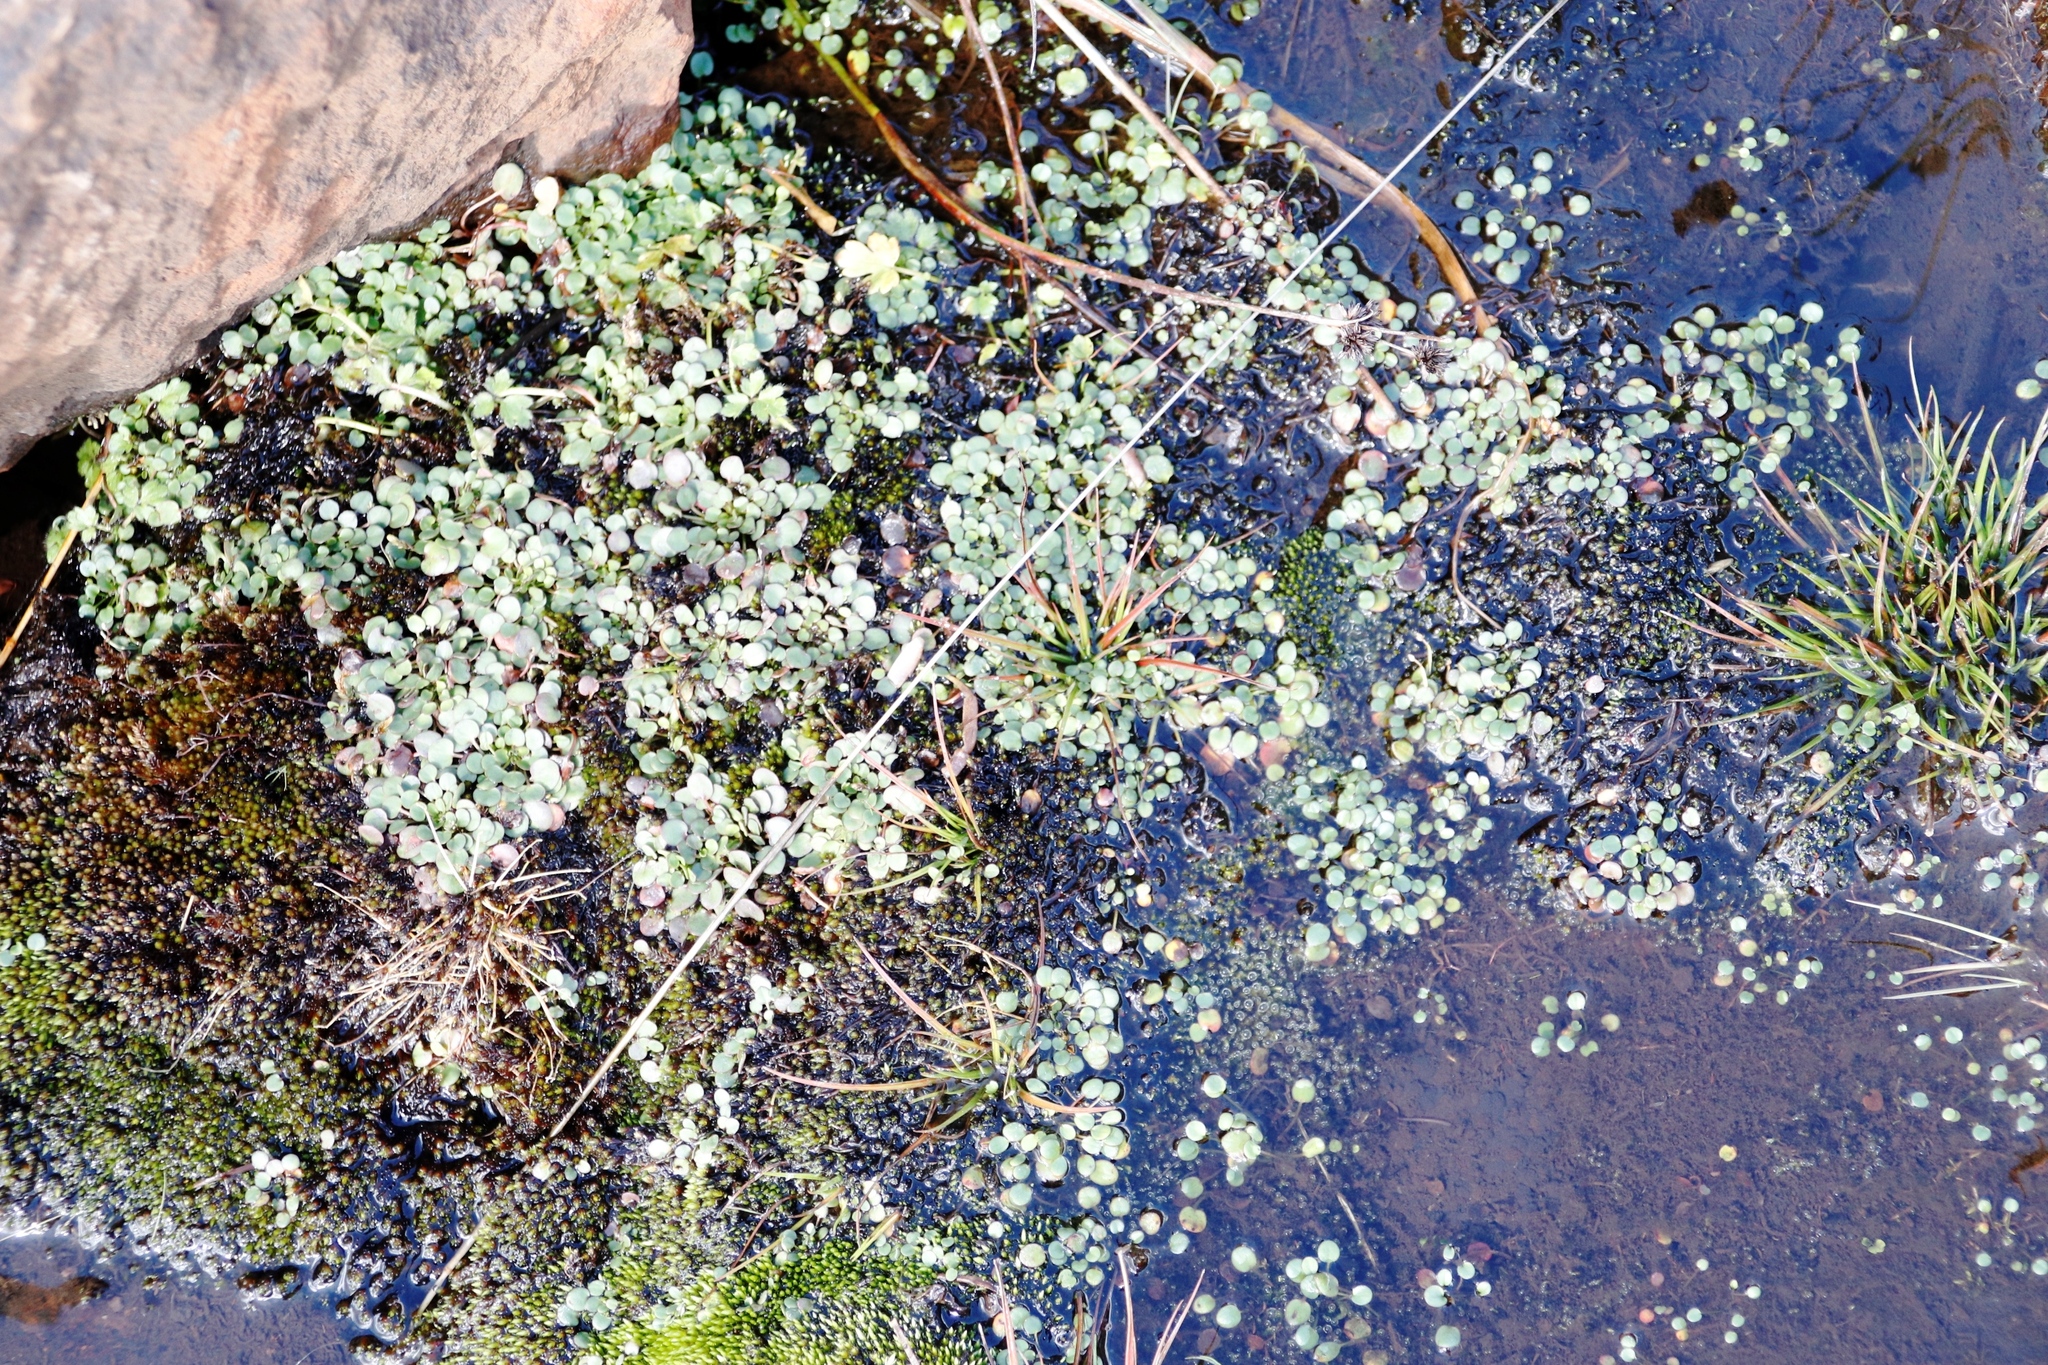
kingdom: Plantae
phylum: Tracheophyta
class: Magnoliopsida
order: Lamiales
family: Scrophulariaceae
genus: Limosella
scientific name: Limosella vesiculosa
